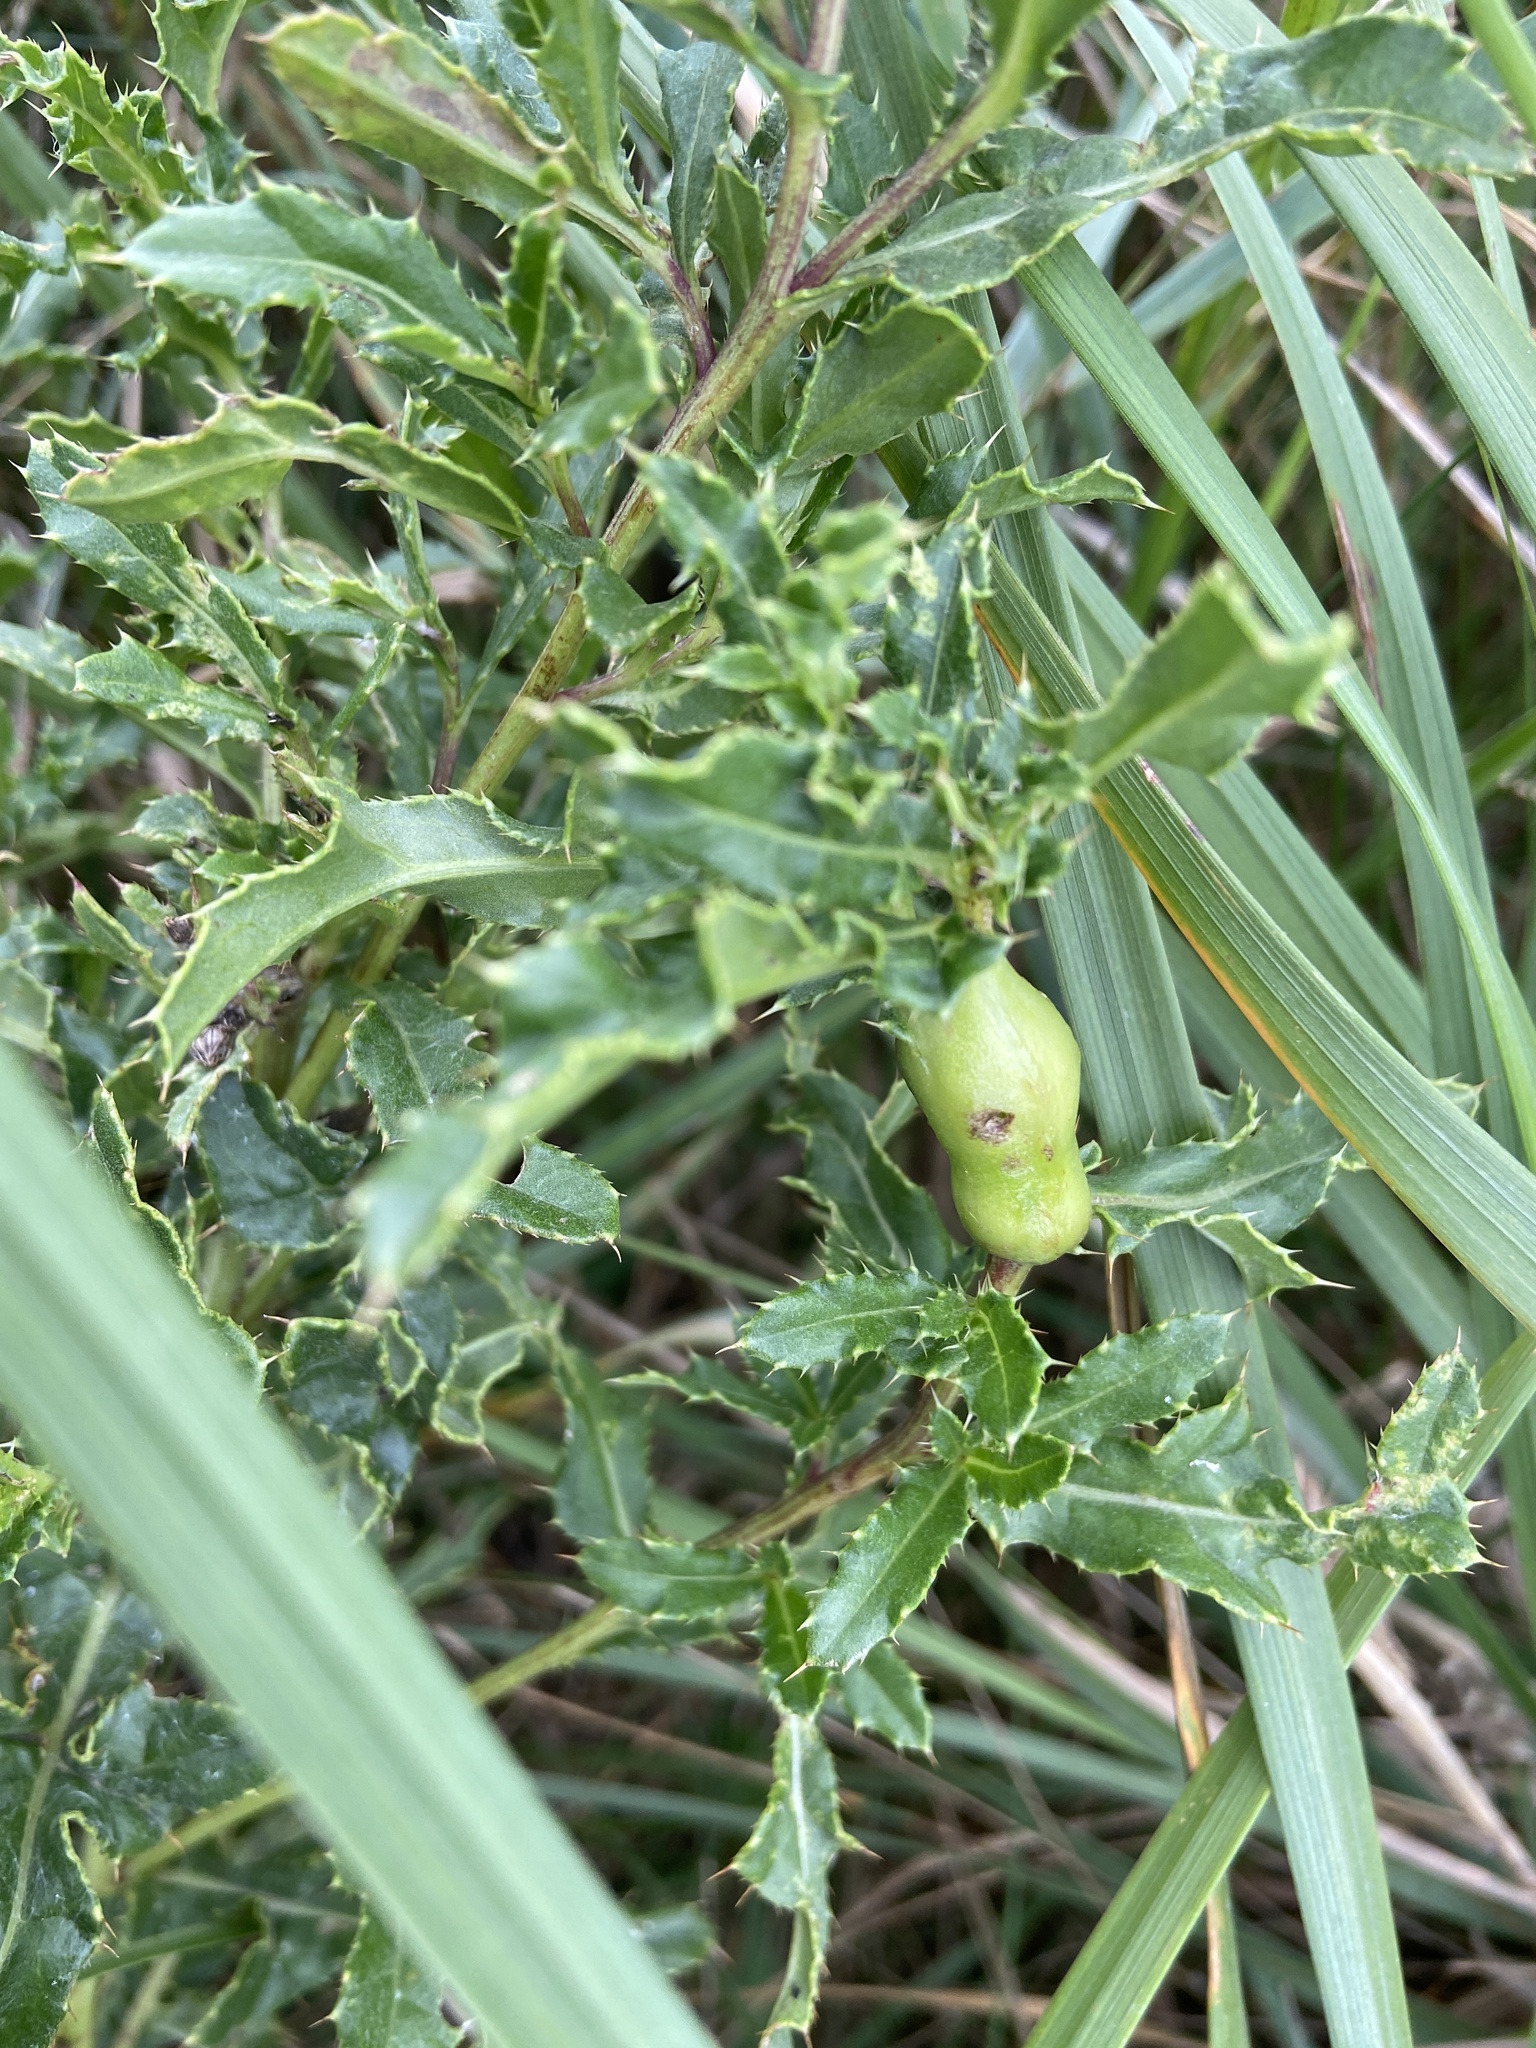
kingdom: Animalia
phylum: Arthropoda
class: Insecta
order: Diptera
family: Tephritidae
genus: Urophora
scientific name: Urophora cardui
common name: Fruit fly
